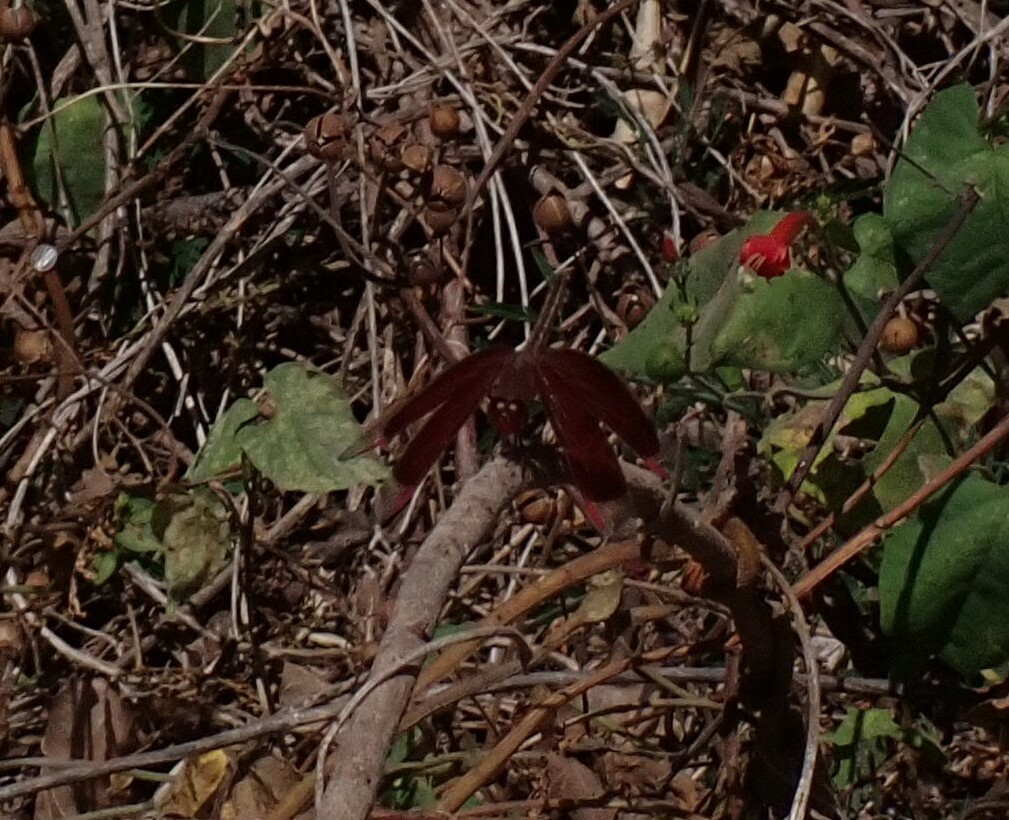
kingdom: Animalia
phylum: Arthropoda
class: Insecta
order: Odonata
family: Libellulidae
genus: Neurothemis
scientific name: Neurothemis stigmatizans
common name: Painted grasshawk
